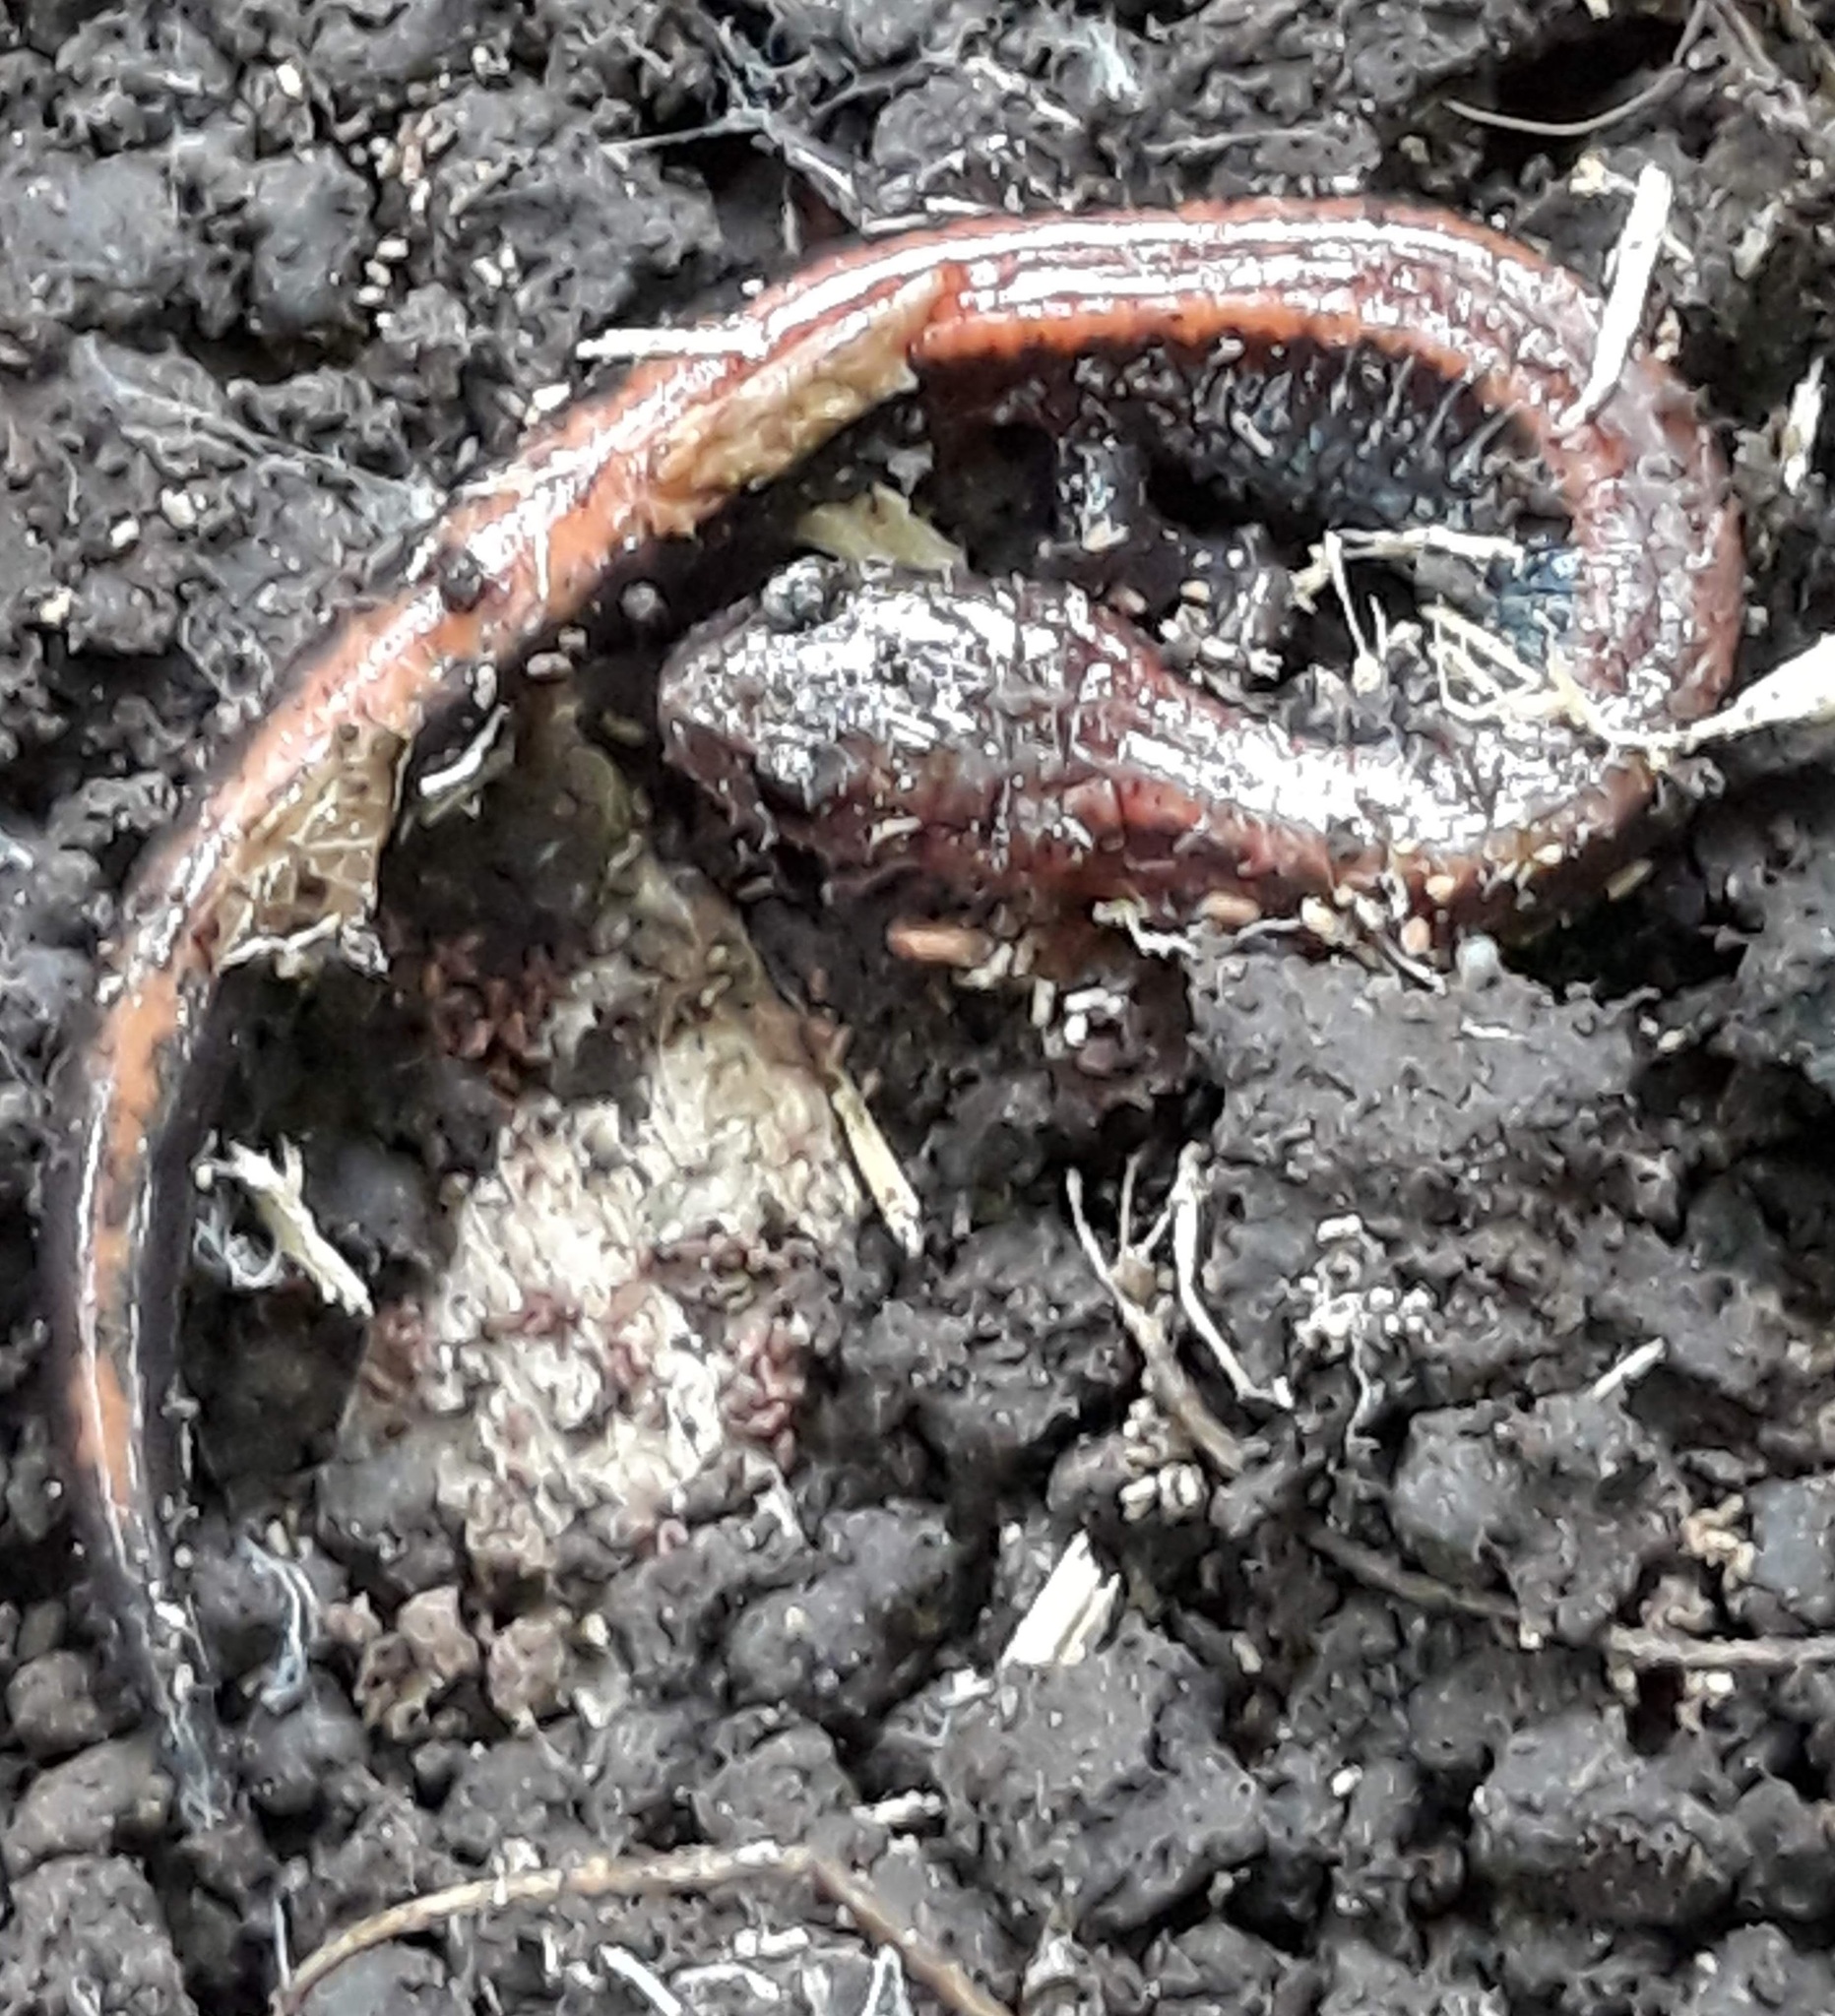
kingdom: Animalia
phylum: Chordata
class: Amphibia
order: Caudata
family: Plethodontidae
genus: Plethodon
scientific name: Plethodon cinereus
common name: Redback salamander
